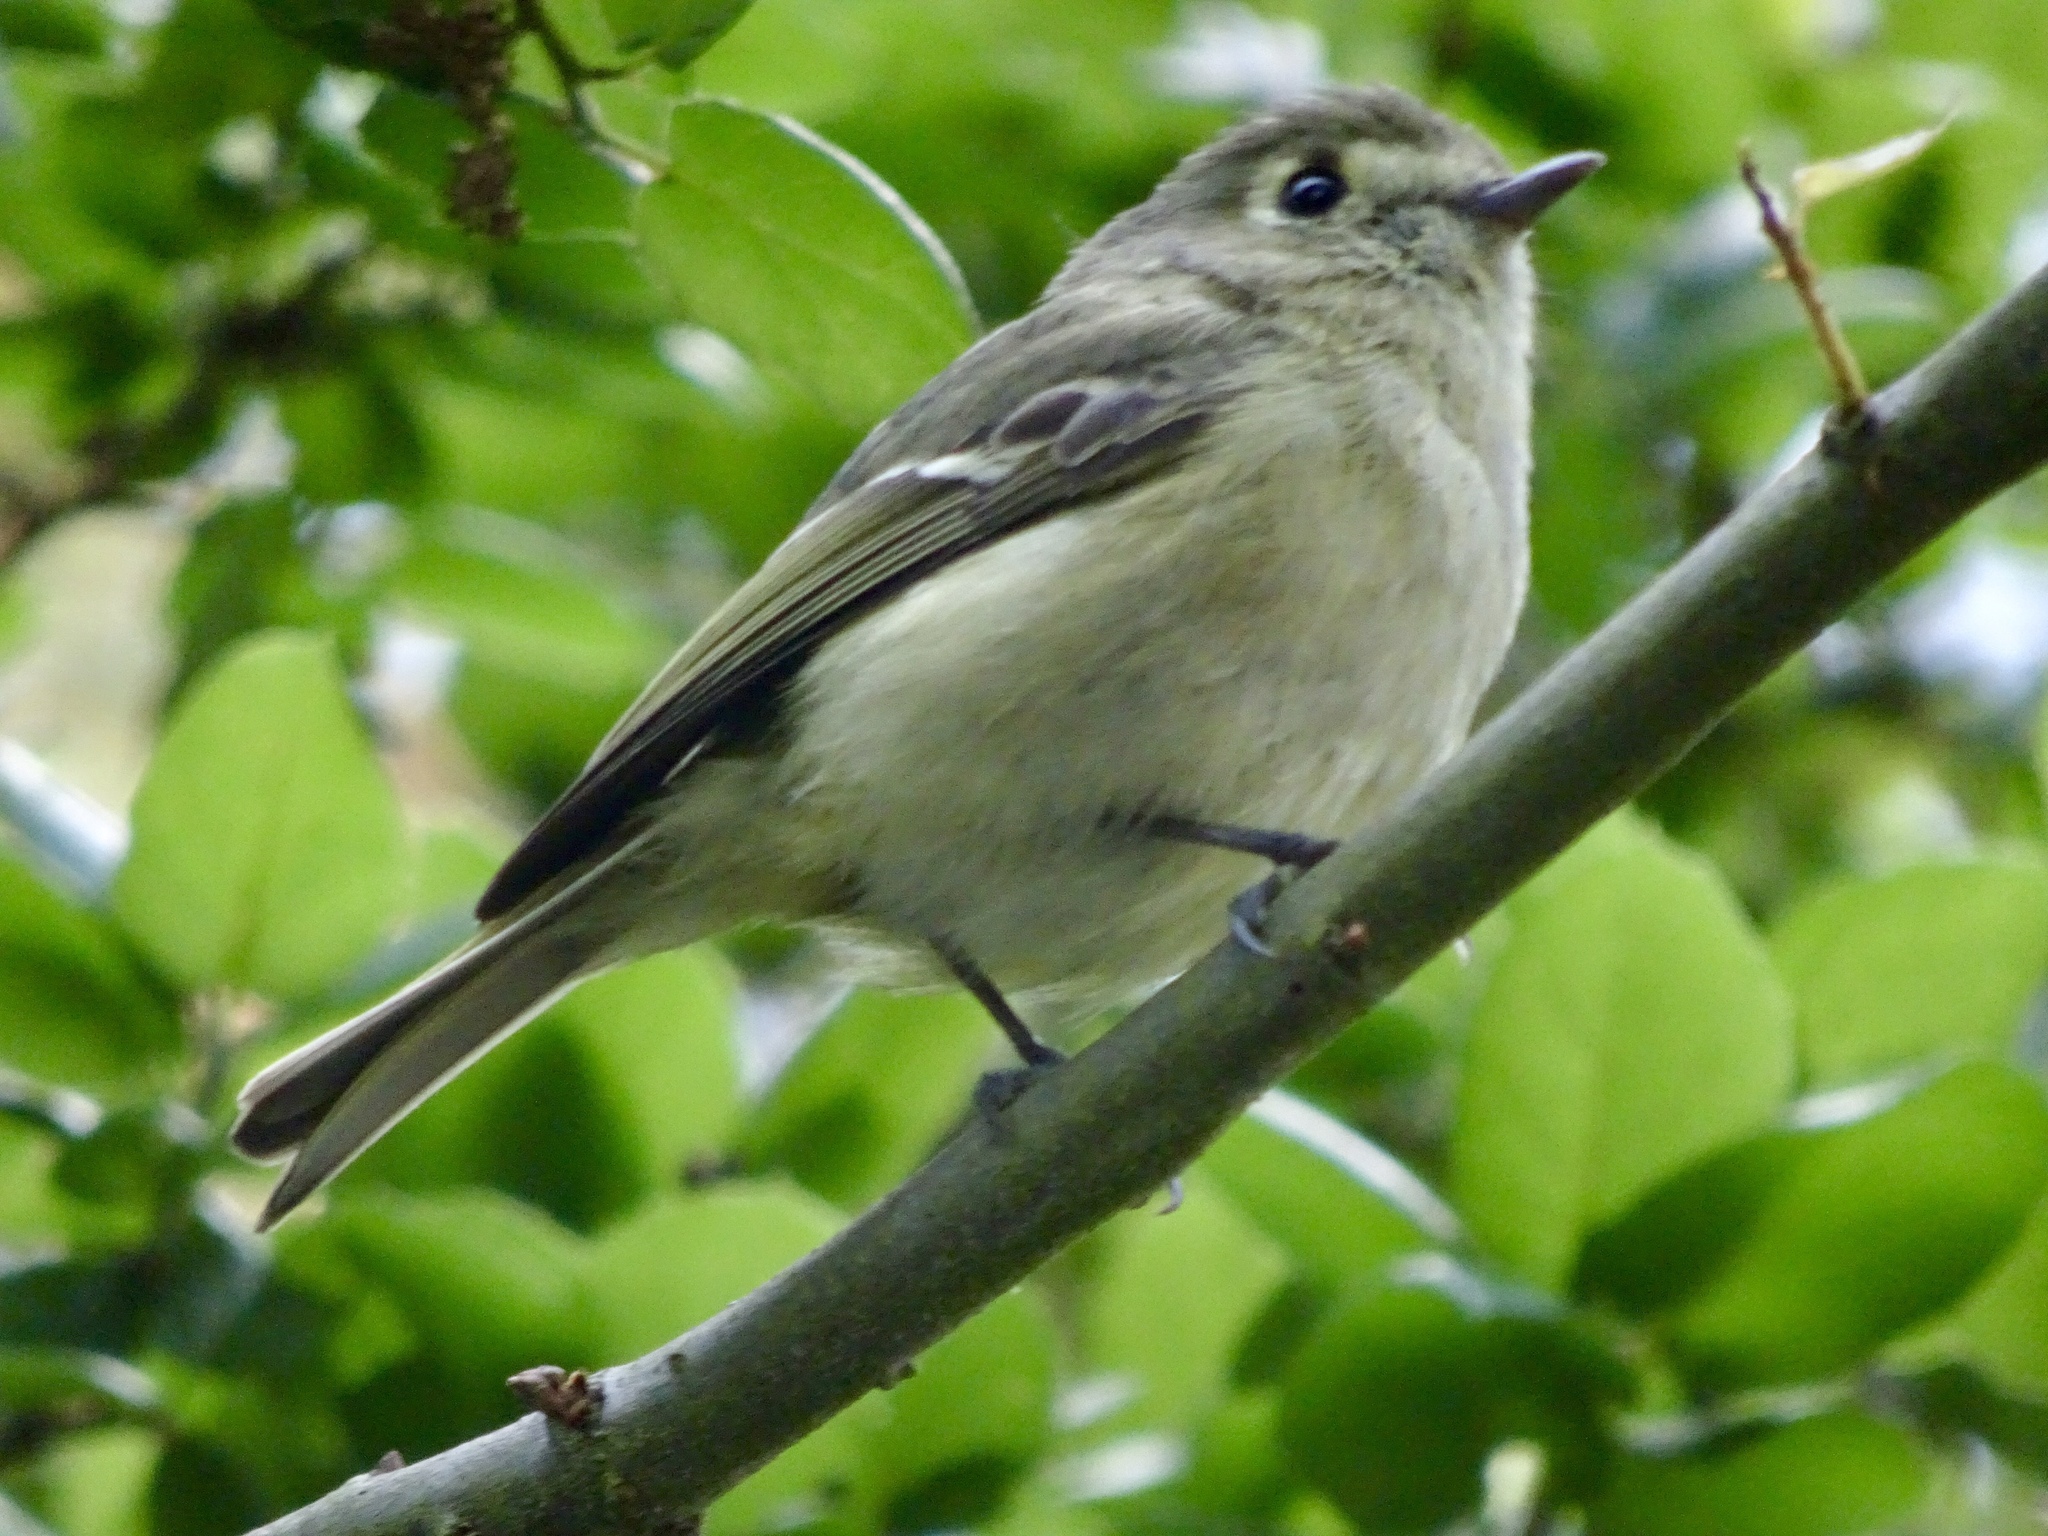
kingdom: Animalia
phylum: Chordata
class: Aves
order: Passeriformes
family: Vireonidae
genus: Vireo
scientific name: Vireo huttoni
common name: Hutton's vireo
